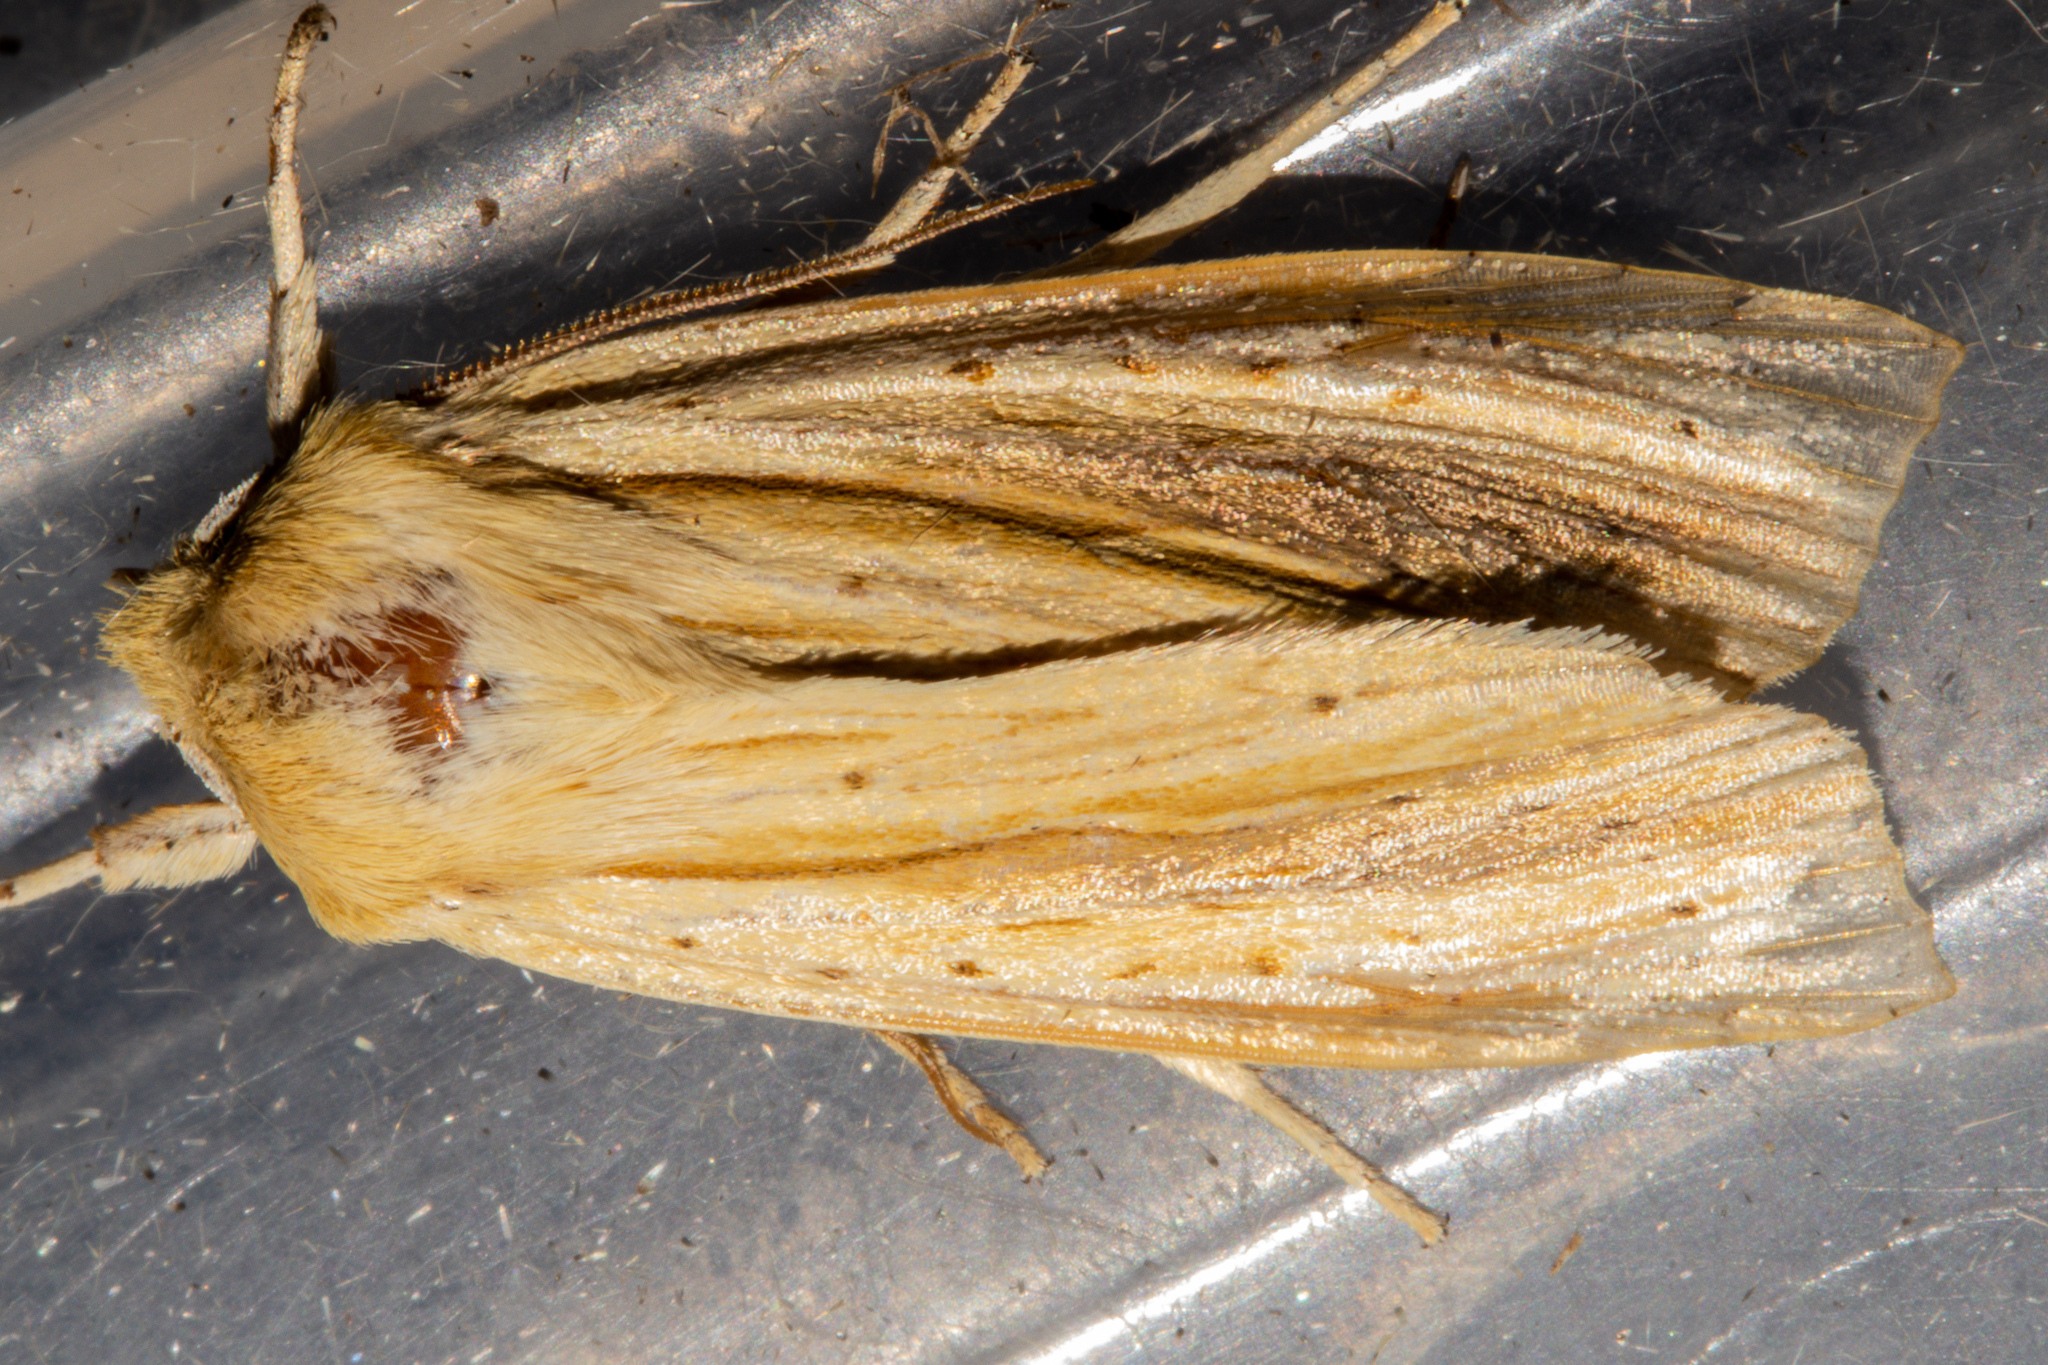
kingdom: Animalia
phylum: Arthropoda
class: Insecta
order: Lepidoptera
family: Noctuidae
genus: Ichneutica
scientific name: Ichneutica semivittata
